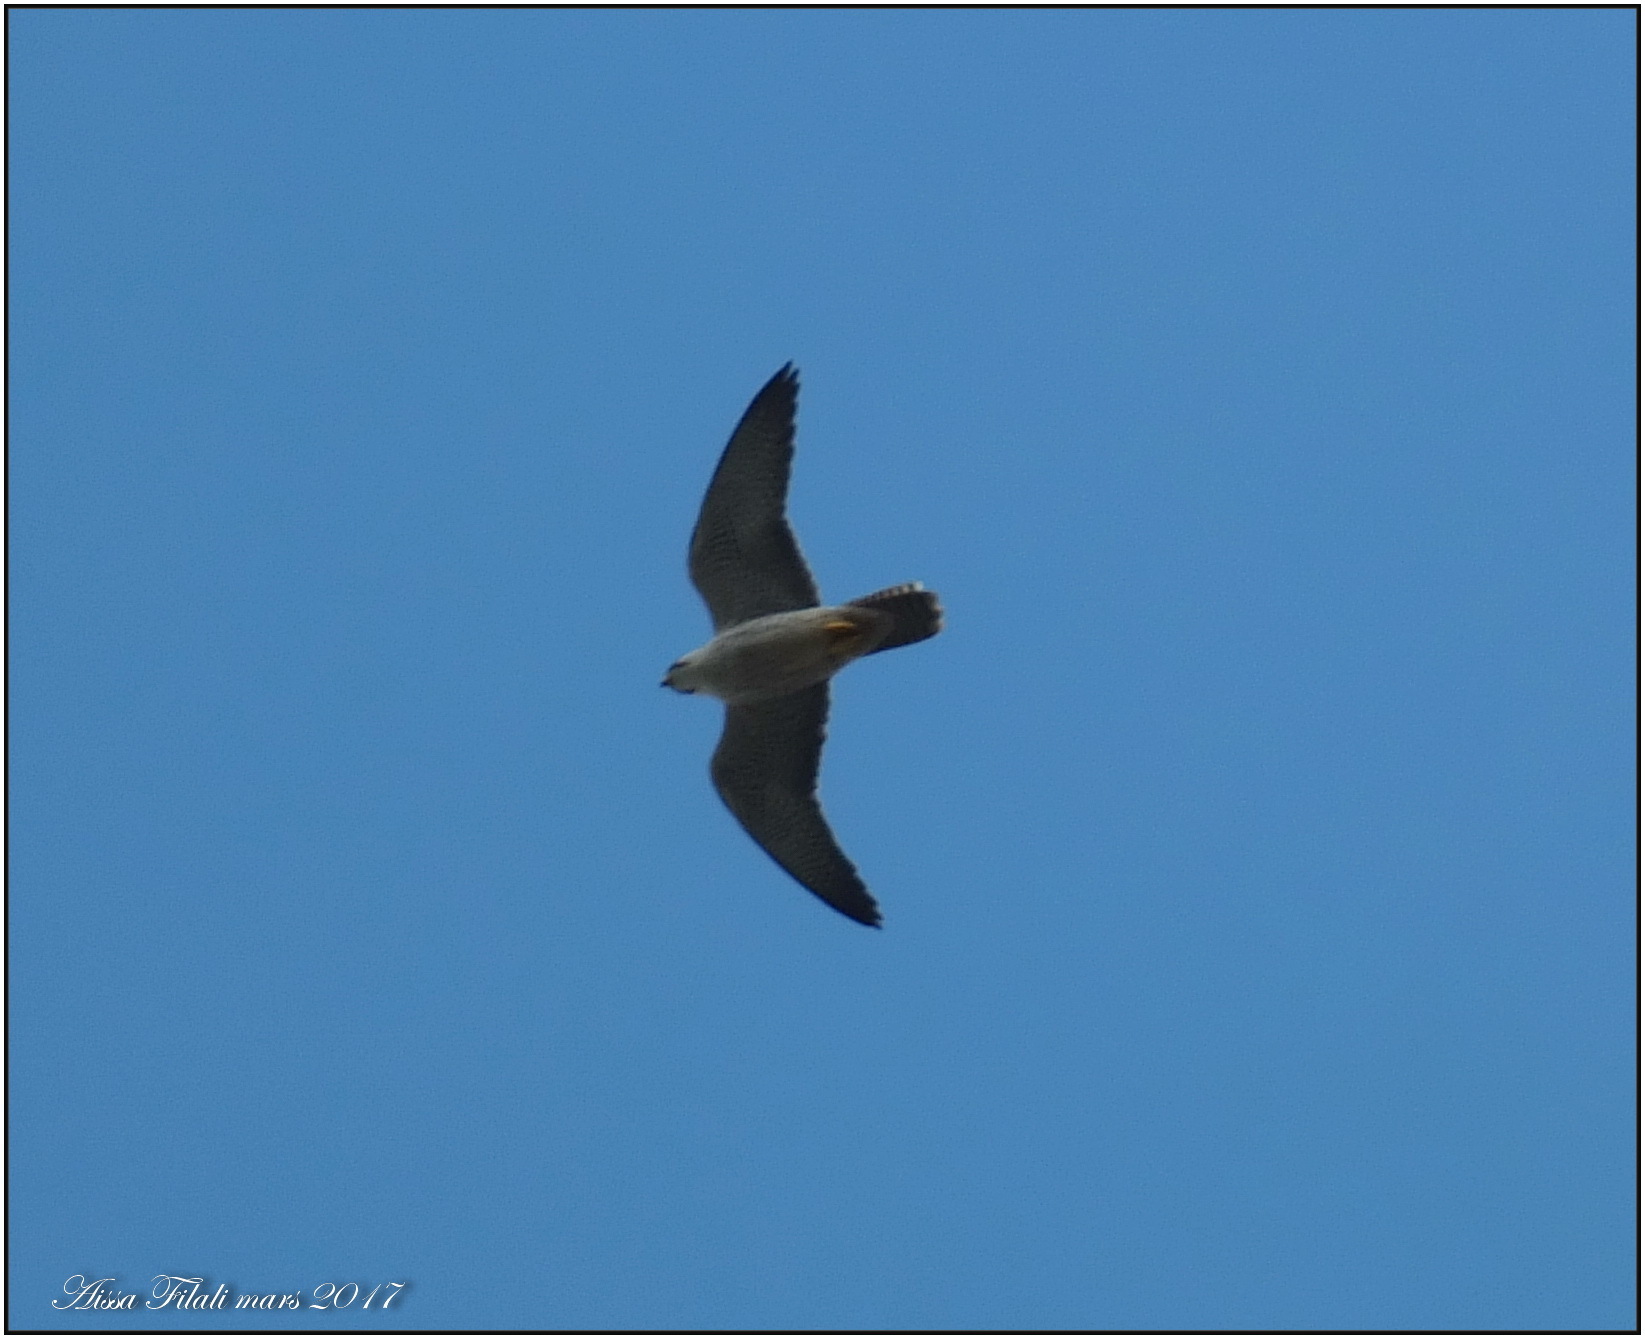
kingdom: Animalia
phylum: Chordata
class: Aves
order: Falconiformes
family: Falconidae
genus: Falco
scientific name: Falco biarmicus
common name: Lanner falcon
